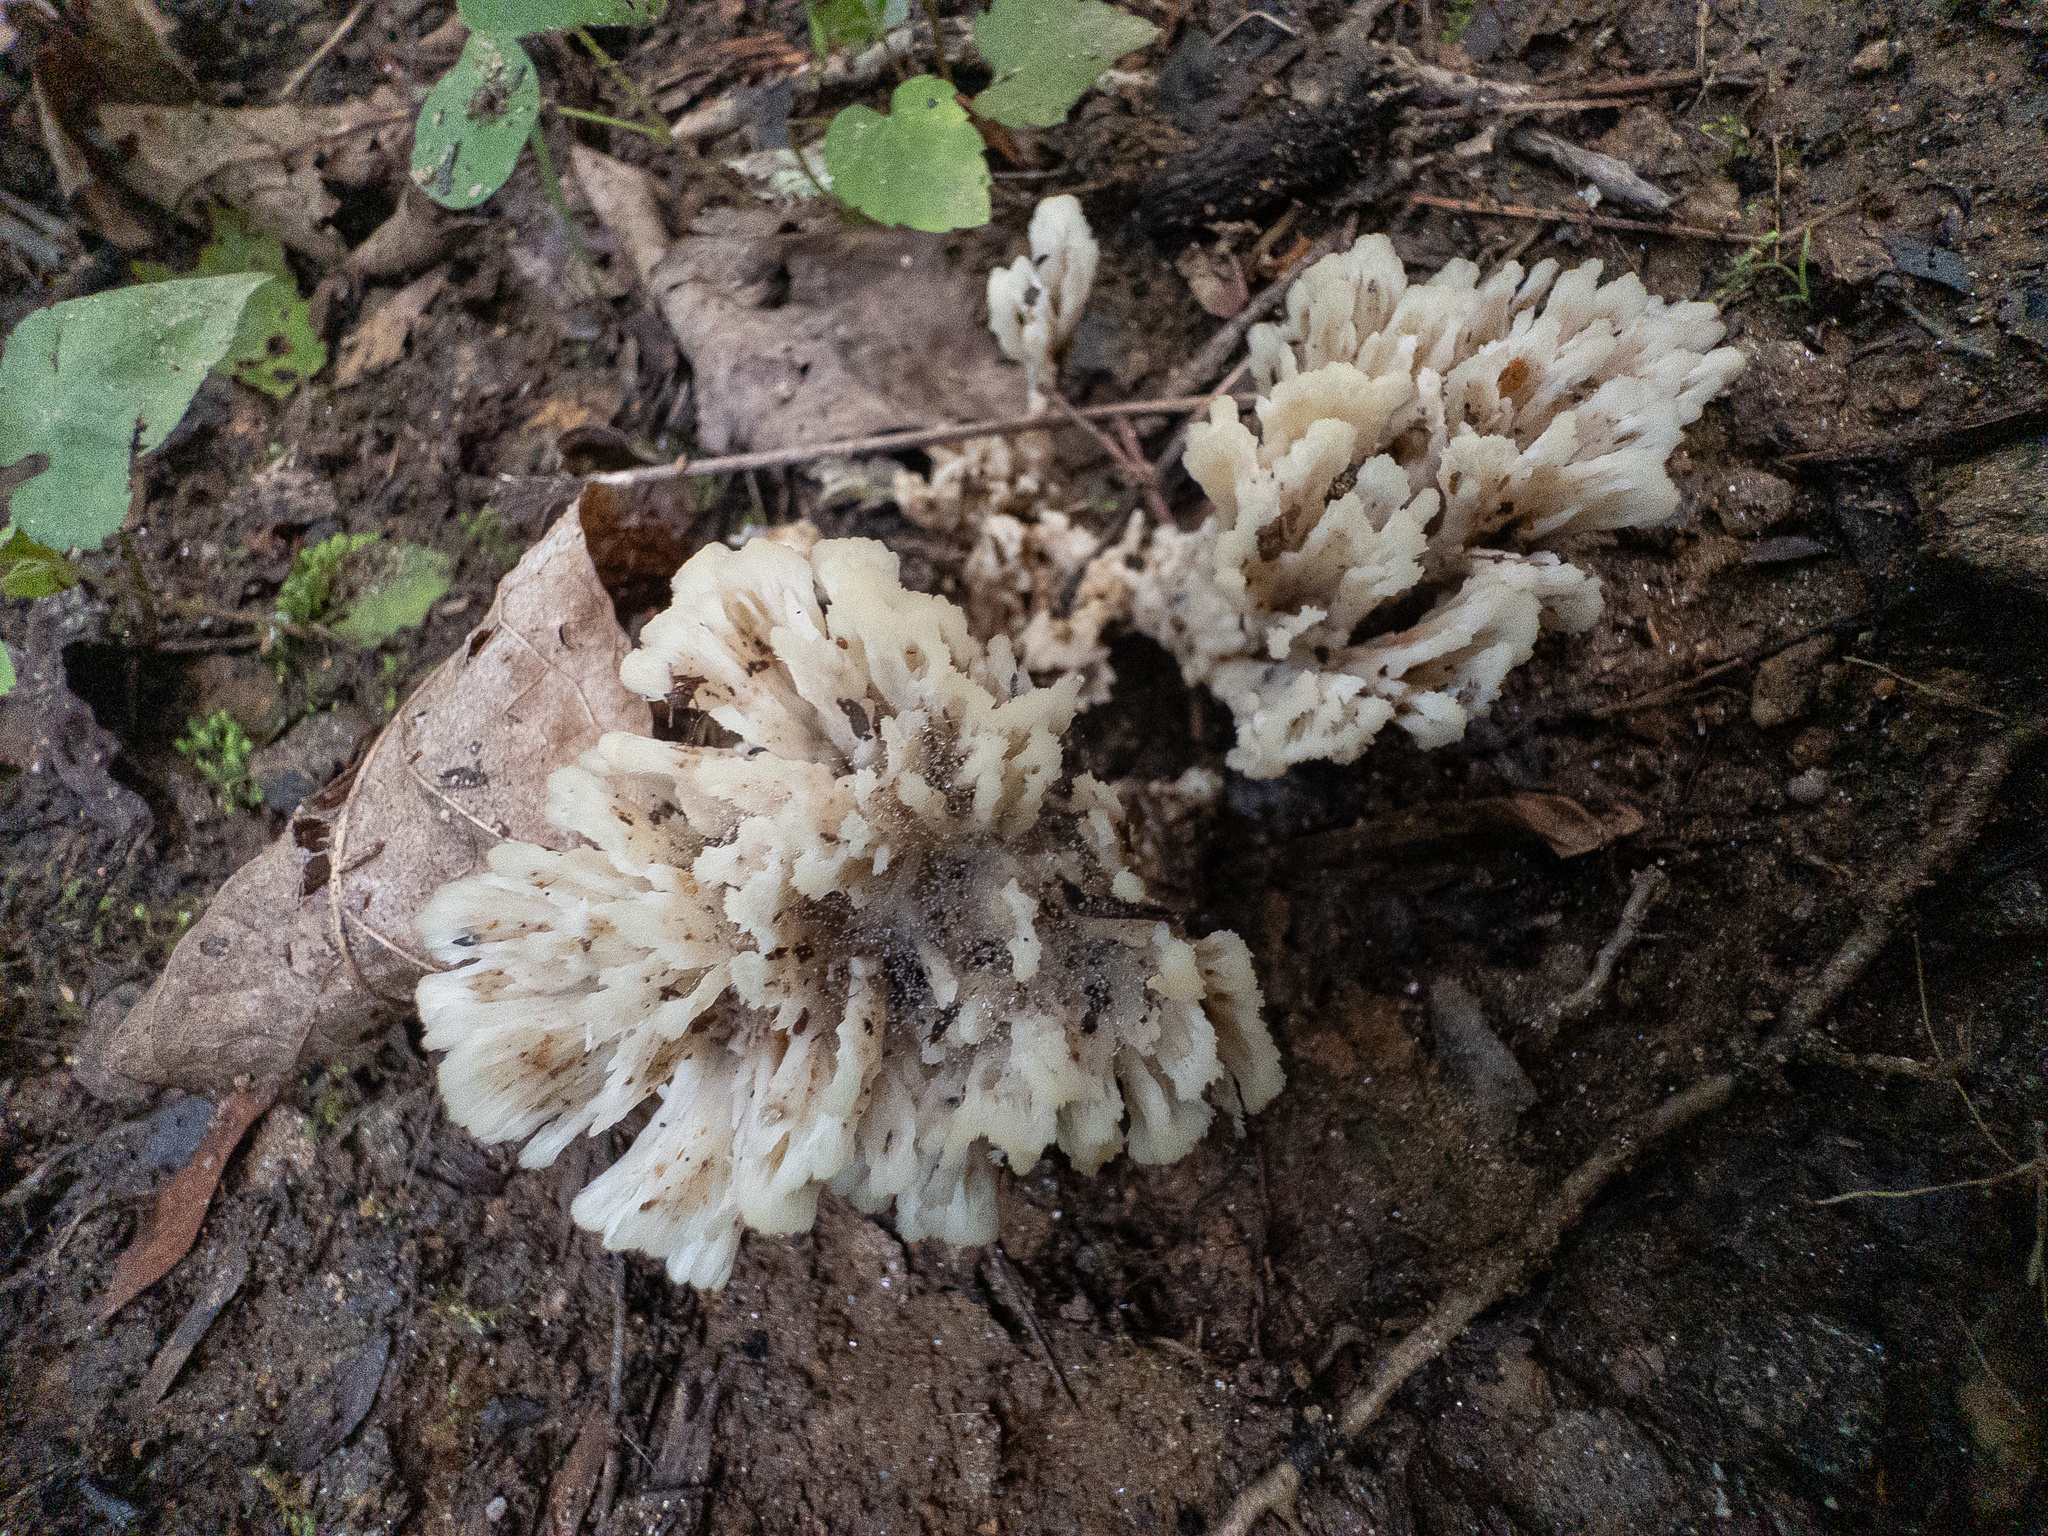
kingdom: Fungi
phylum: Basidiomycota
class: Agaricomycetes
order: Sebacinales
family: Sebacinaceae
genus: Sebacina
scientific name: Sebacina schweinitzii
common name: Jellied false coral fungus
